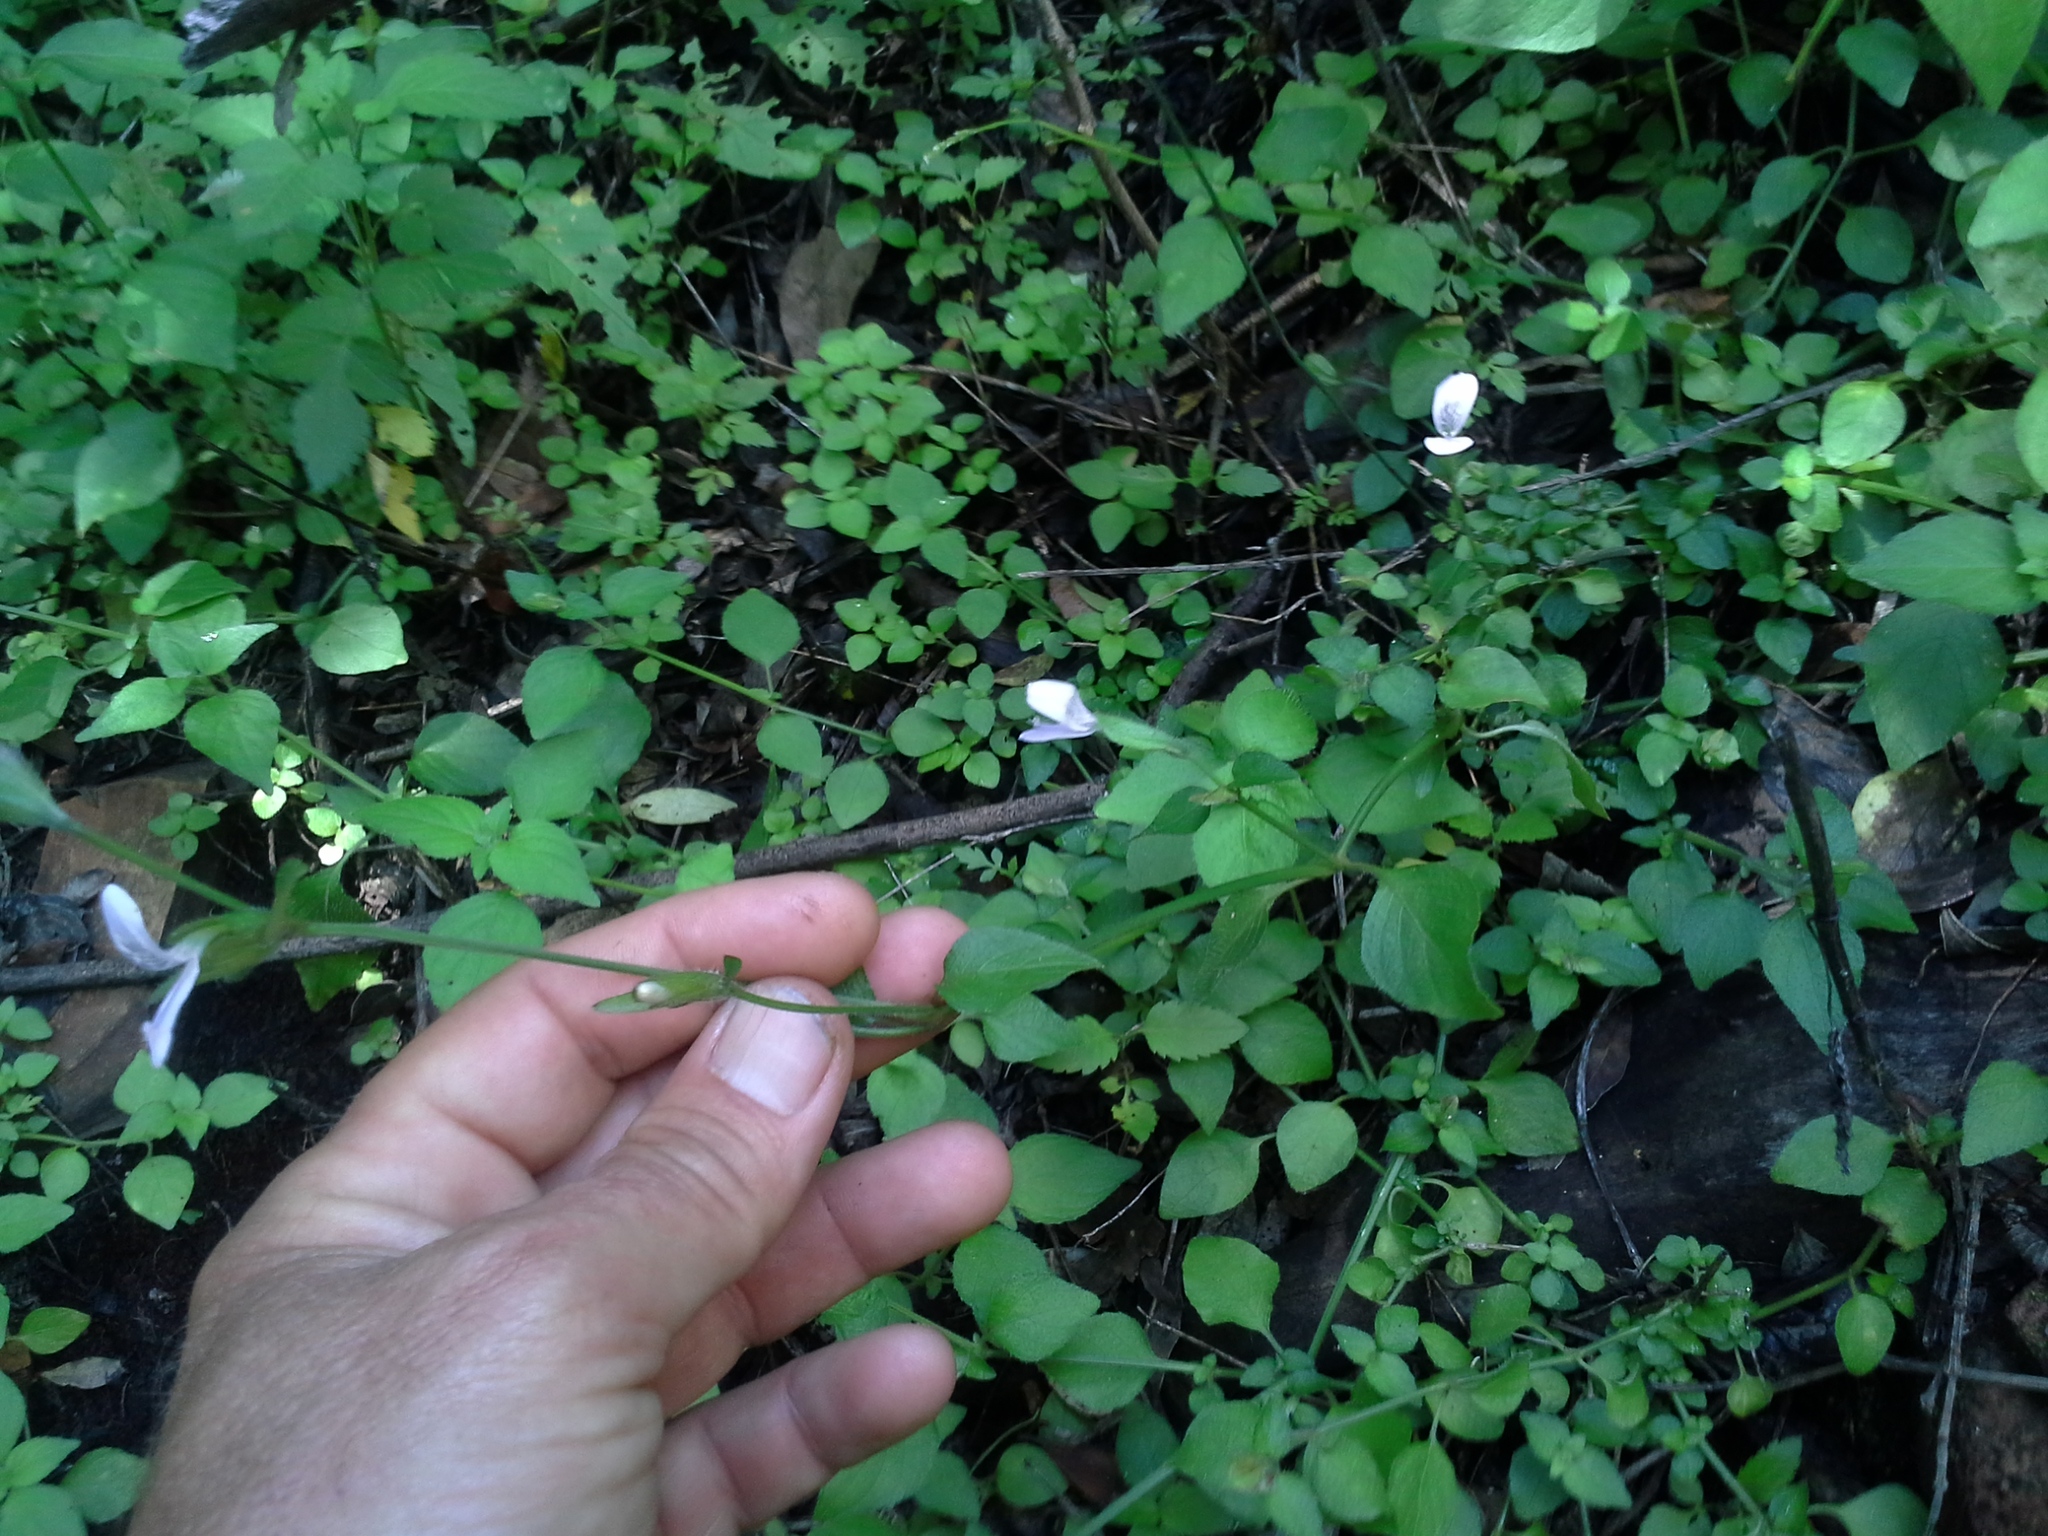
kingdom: Plantae
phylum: Tracheophyta
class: Magnoliopsida
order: Lamiales
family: Acanthaceae
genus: Hypoestes
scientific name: Hypoestes triflora
